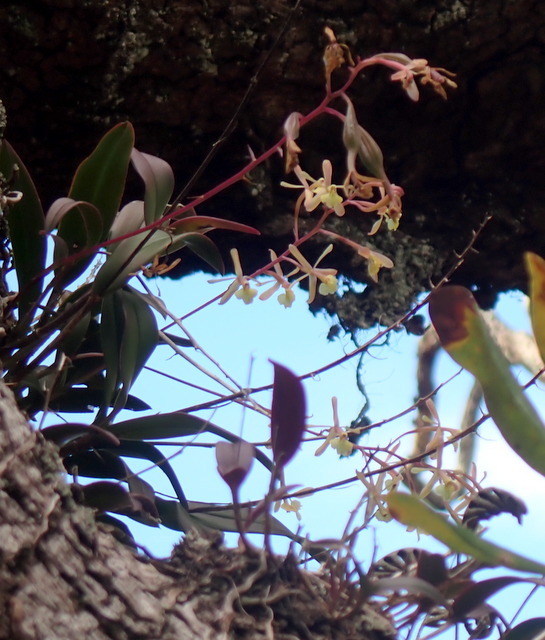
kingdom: Plantae
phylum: Tracheophyta
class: Liliopsida
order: Asparagales
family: Orchidaceae
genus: Epidendrum
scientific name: Epidendrum conopseum
